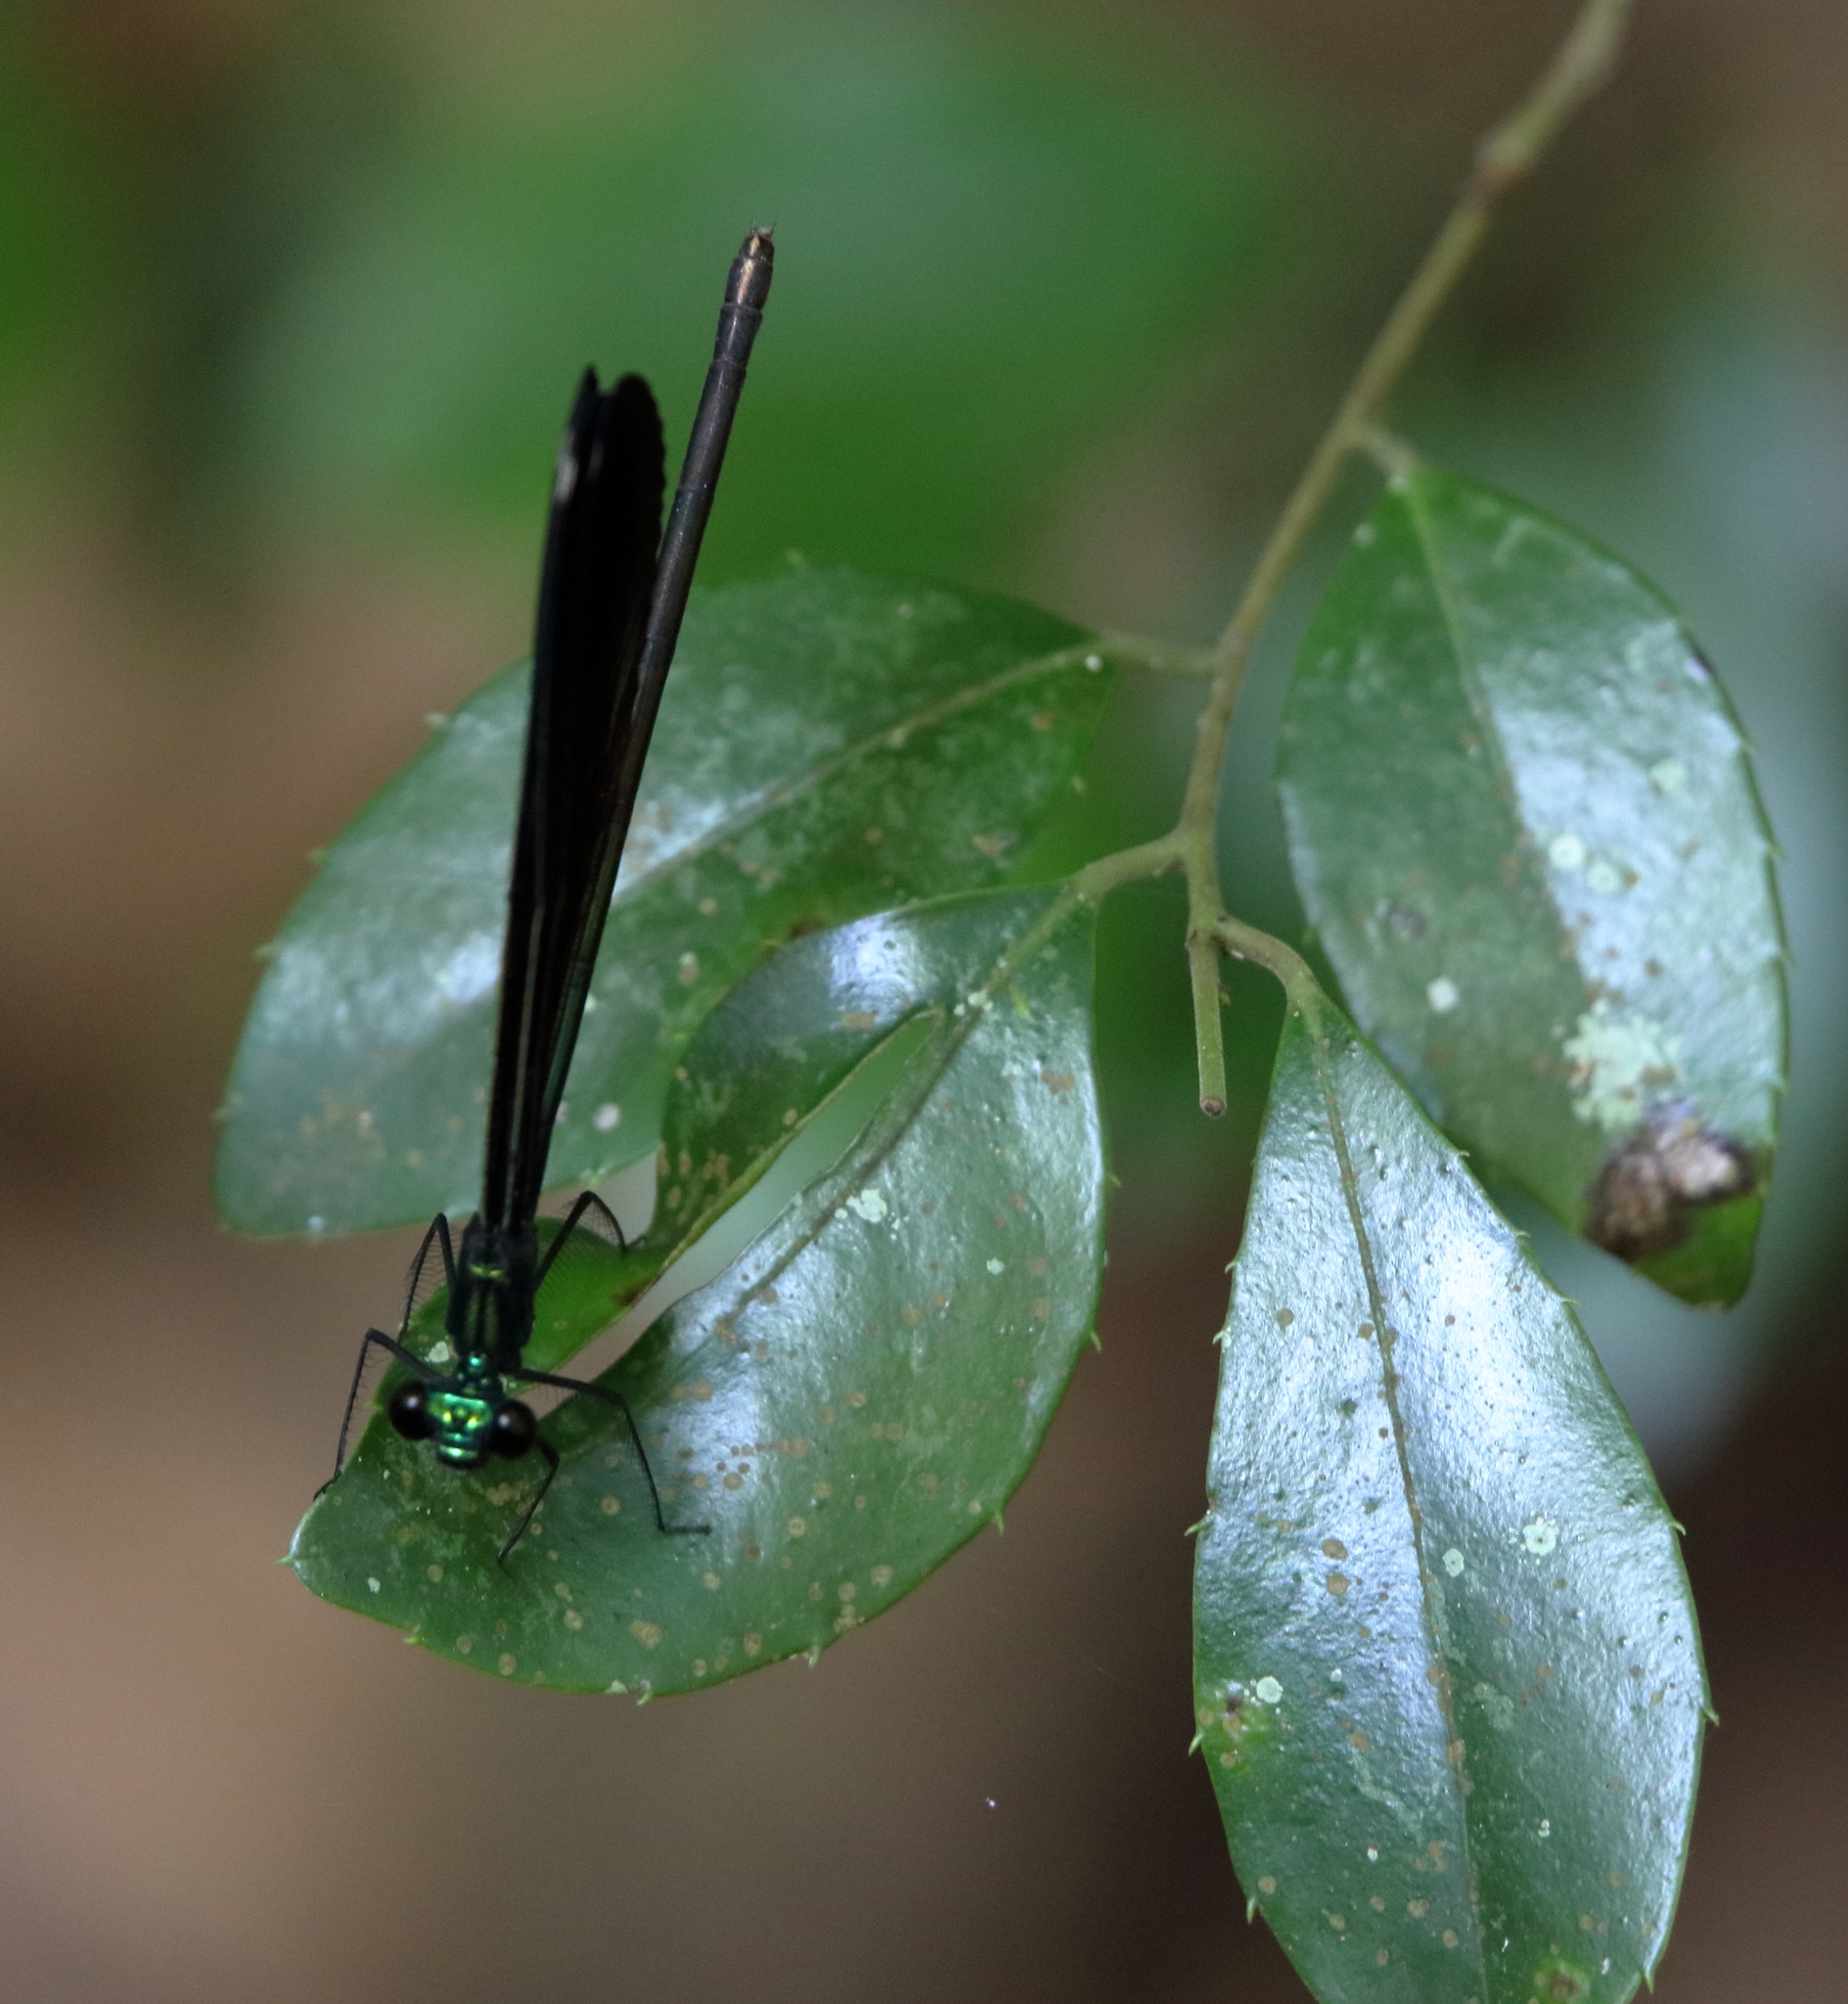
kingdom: Animalia
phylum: Arthropoda
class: Insecta
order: Odonata
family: Calopterygidae
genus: Calopteryx
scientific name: Calopteryx maculata
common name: Ebony jewelwing
